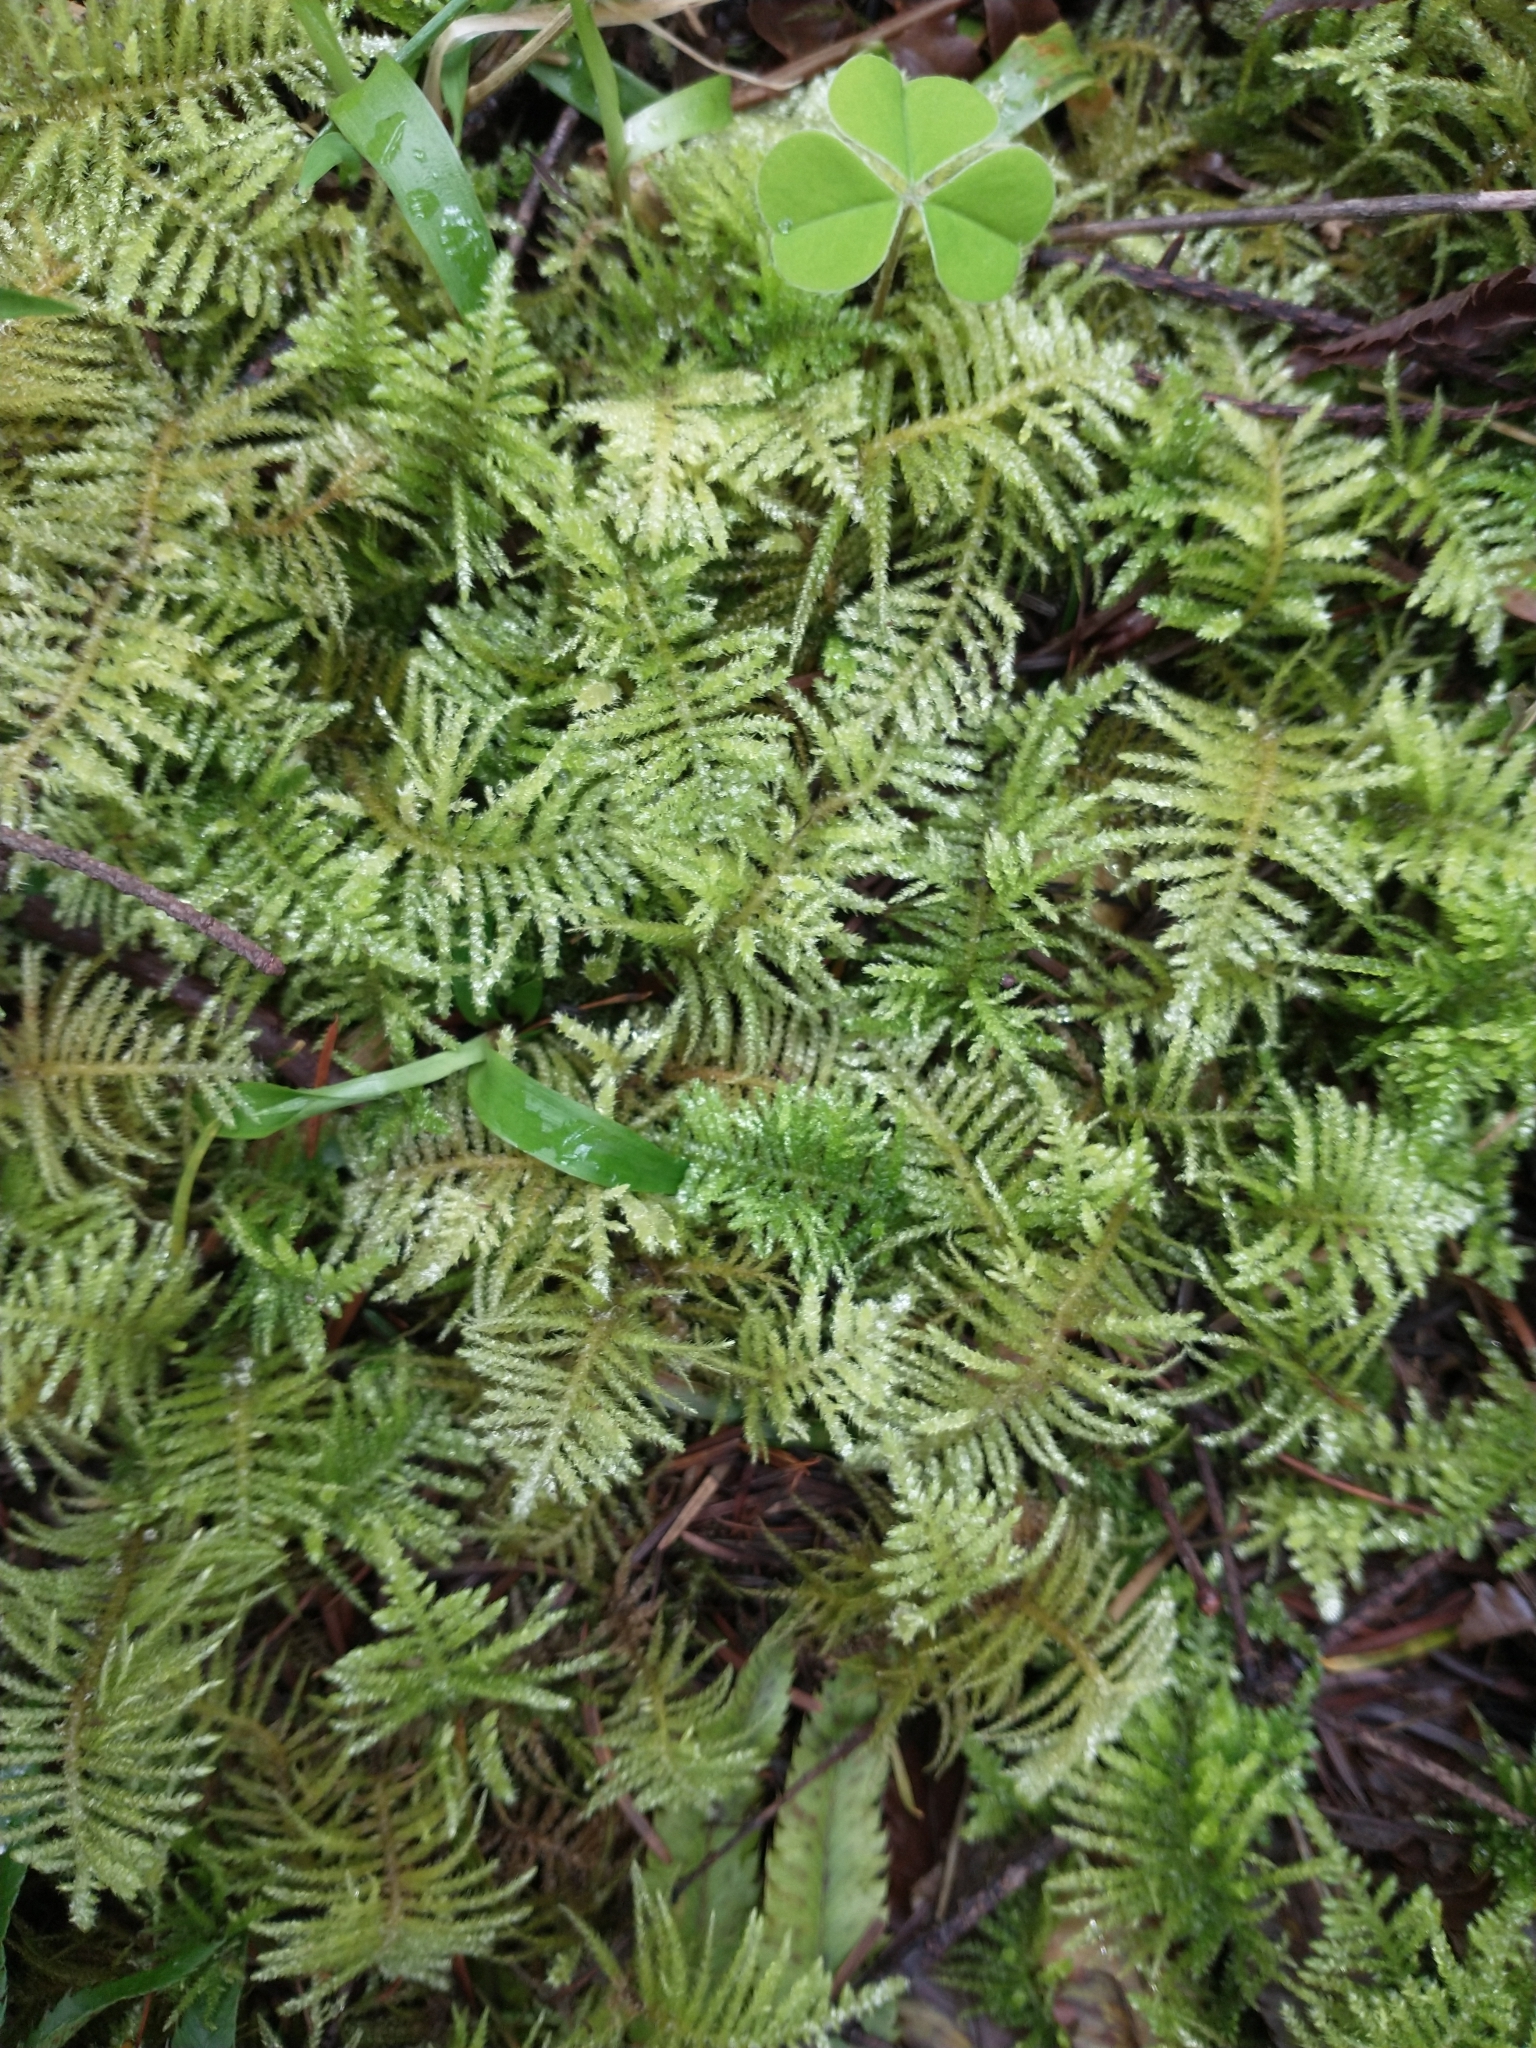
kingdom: Plantae
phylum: Bryophyta
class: Bryopsida
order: Hypnales
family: Brachytheciaceae
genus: Kindbergia
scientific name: Kindbergia oregana
